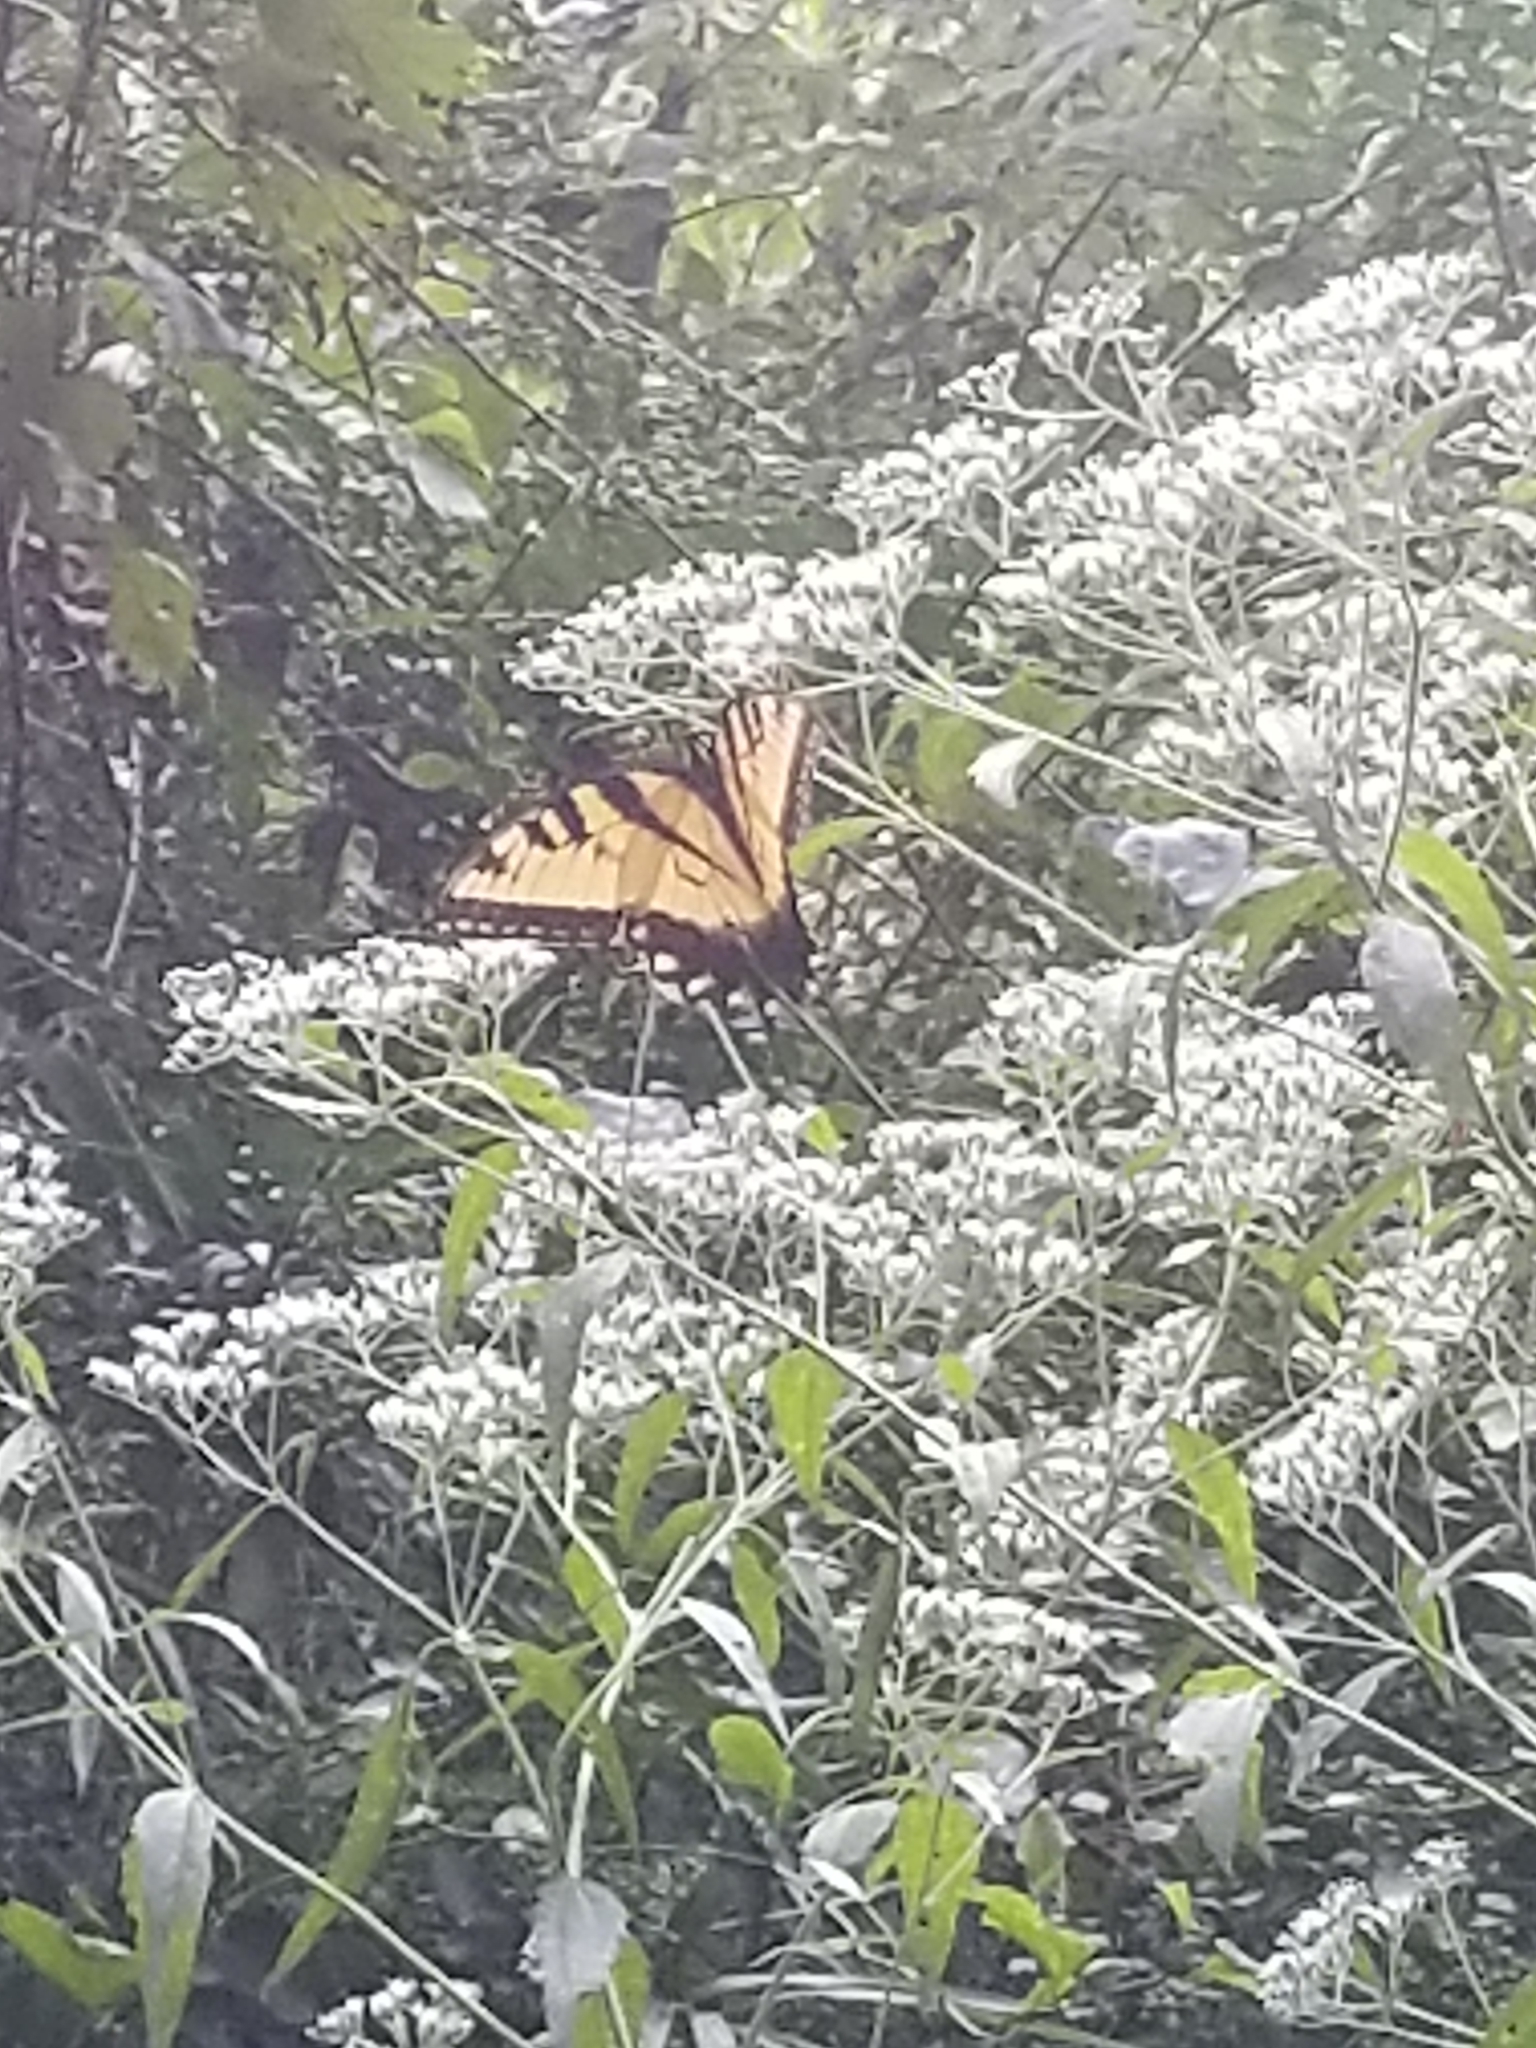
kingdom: Animalia
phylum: Arthropoda
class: Insecta
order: Lepidoptera
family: Papilionidae
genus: Papilio
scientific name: Papilio glaucus
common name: Tiger swallowtail
